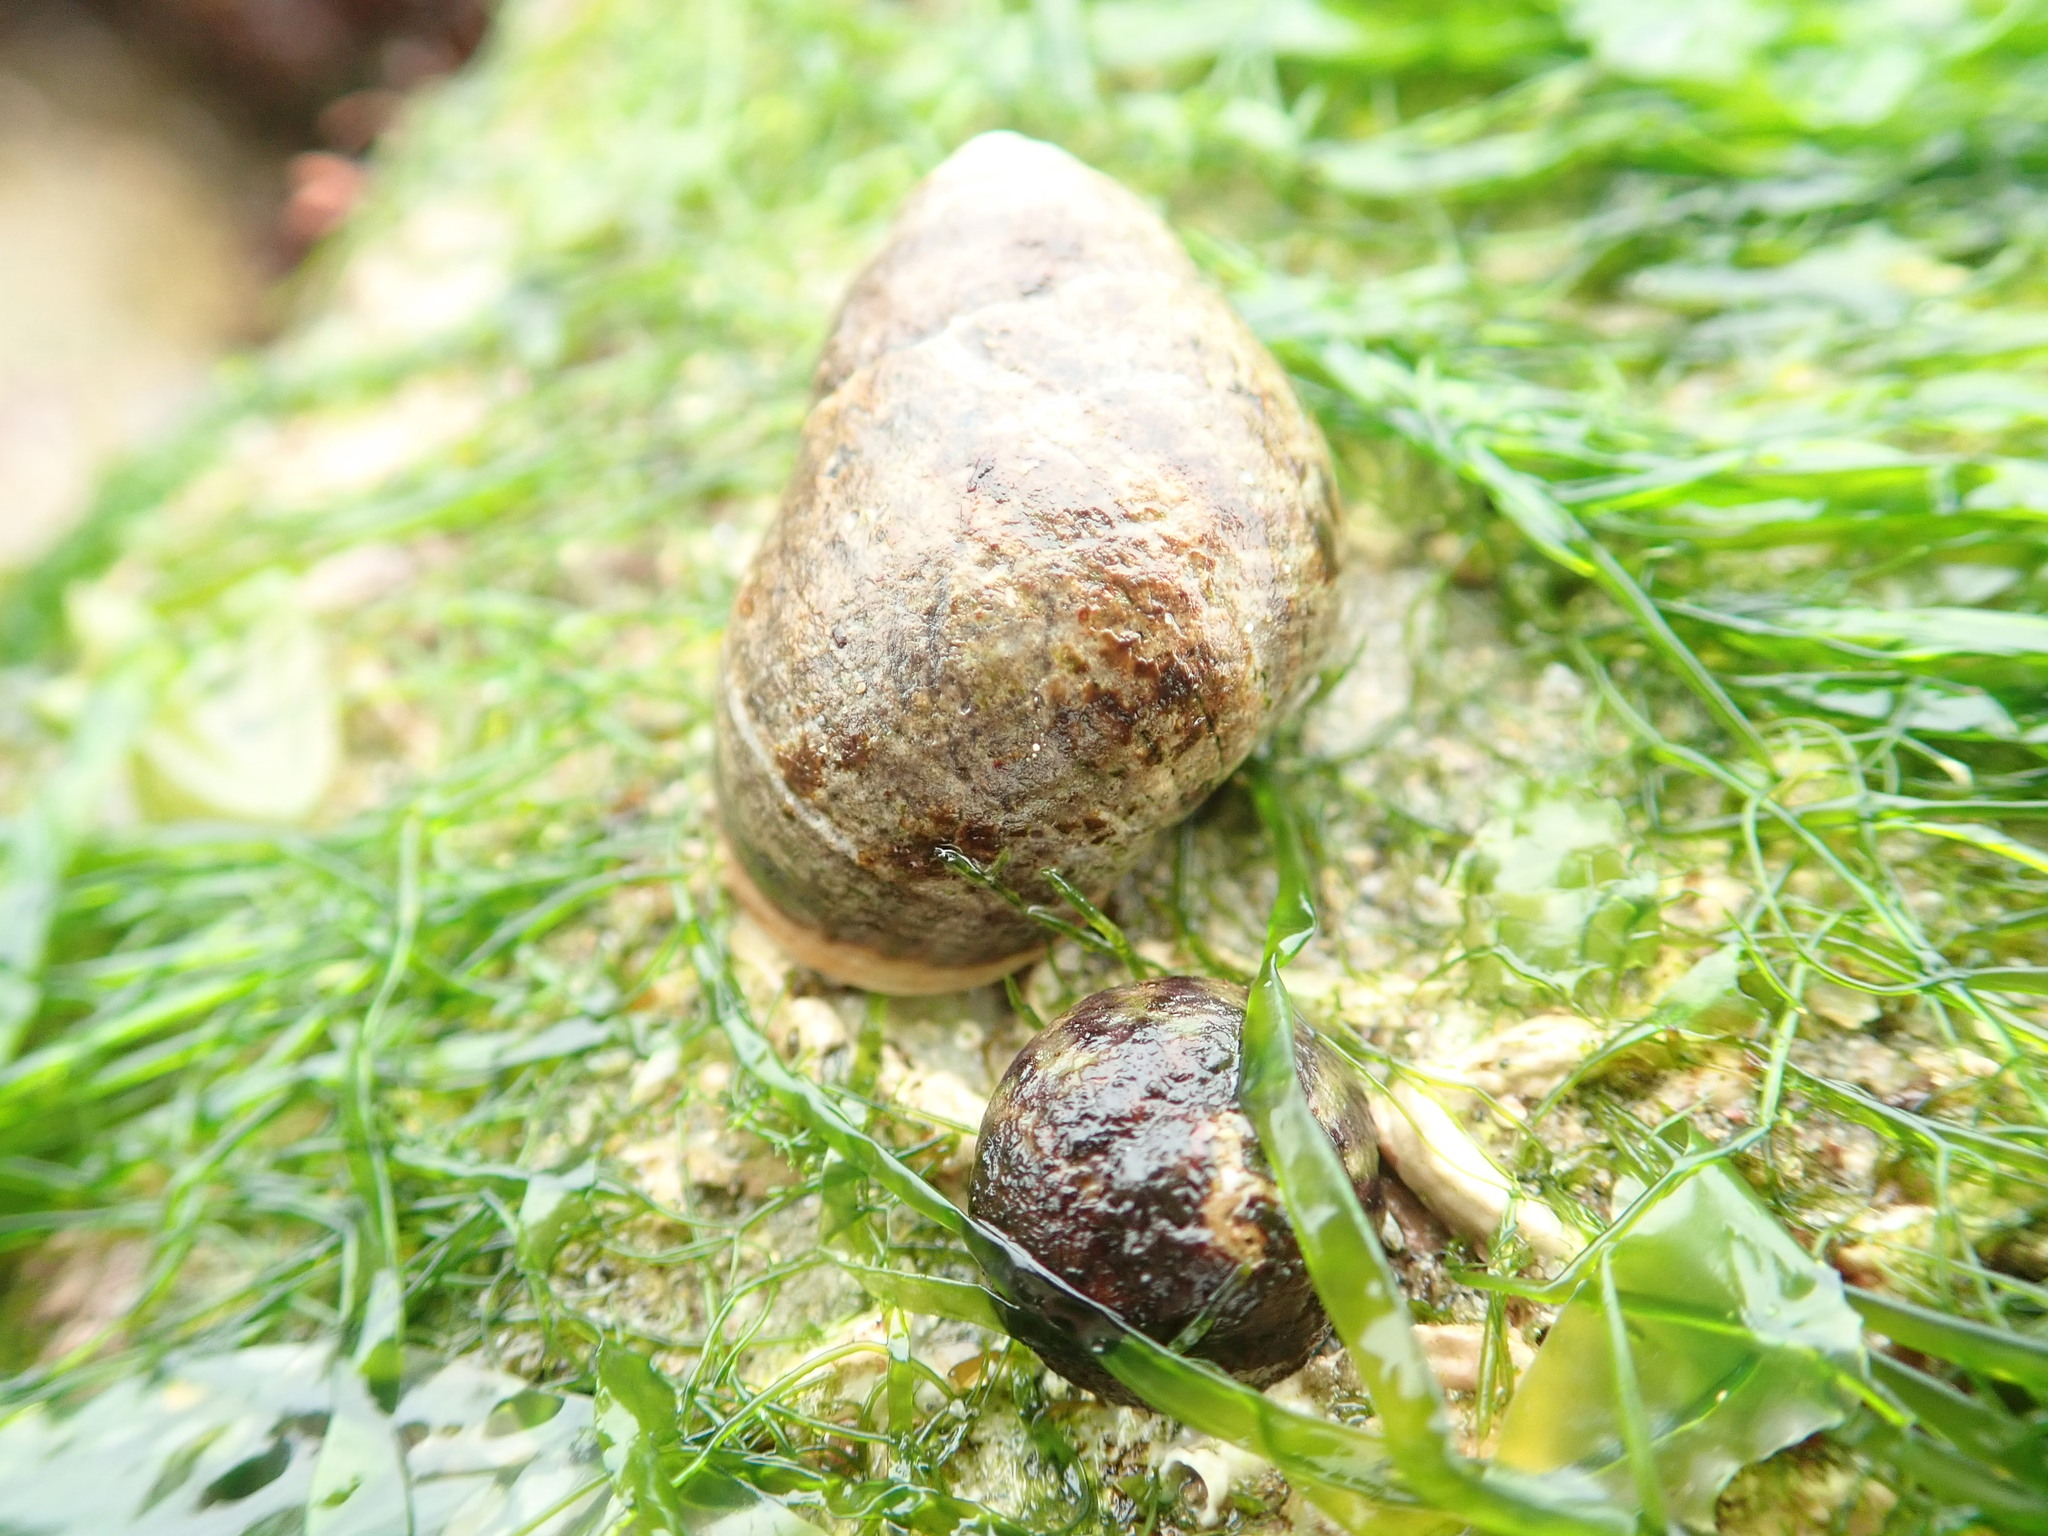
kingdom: Animalia
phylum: Mollusca
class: Gastropoda
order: Littorinimorpha
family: Littorinidae
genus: Littorina
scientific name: Littorina littorea
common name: Common periwinkle
